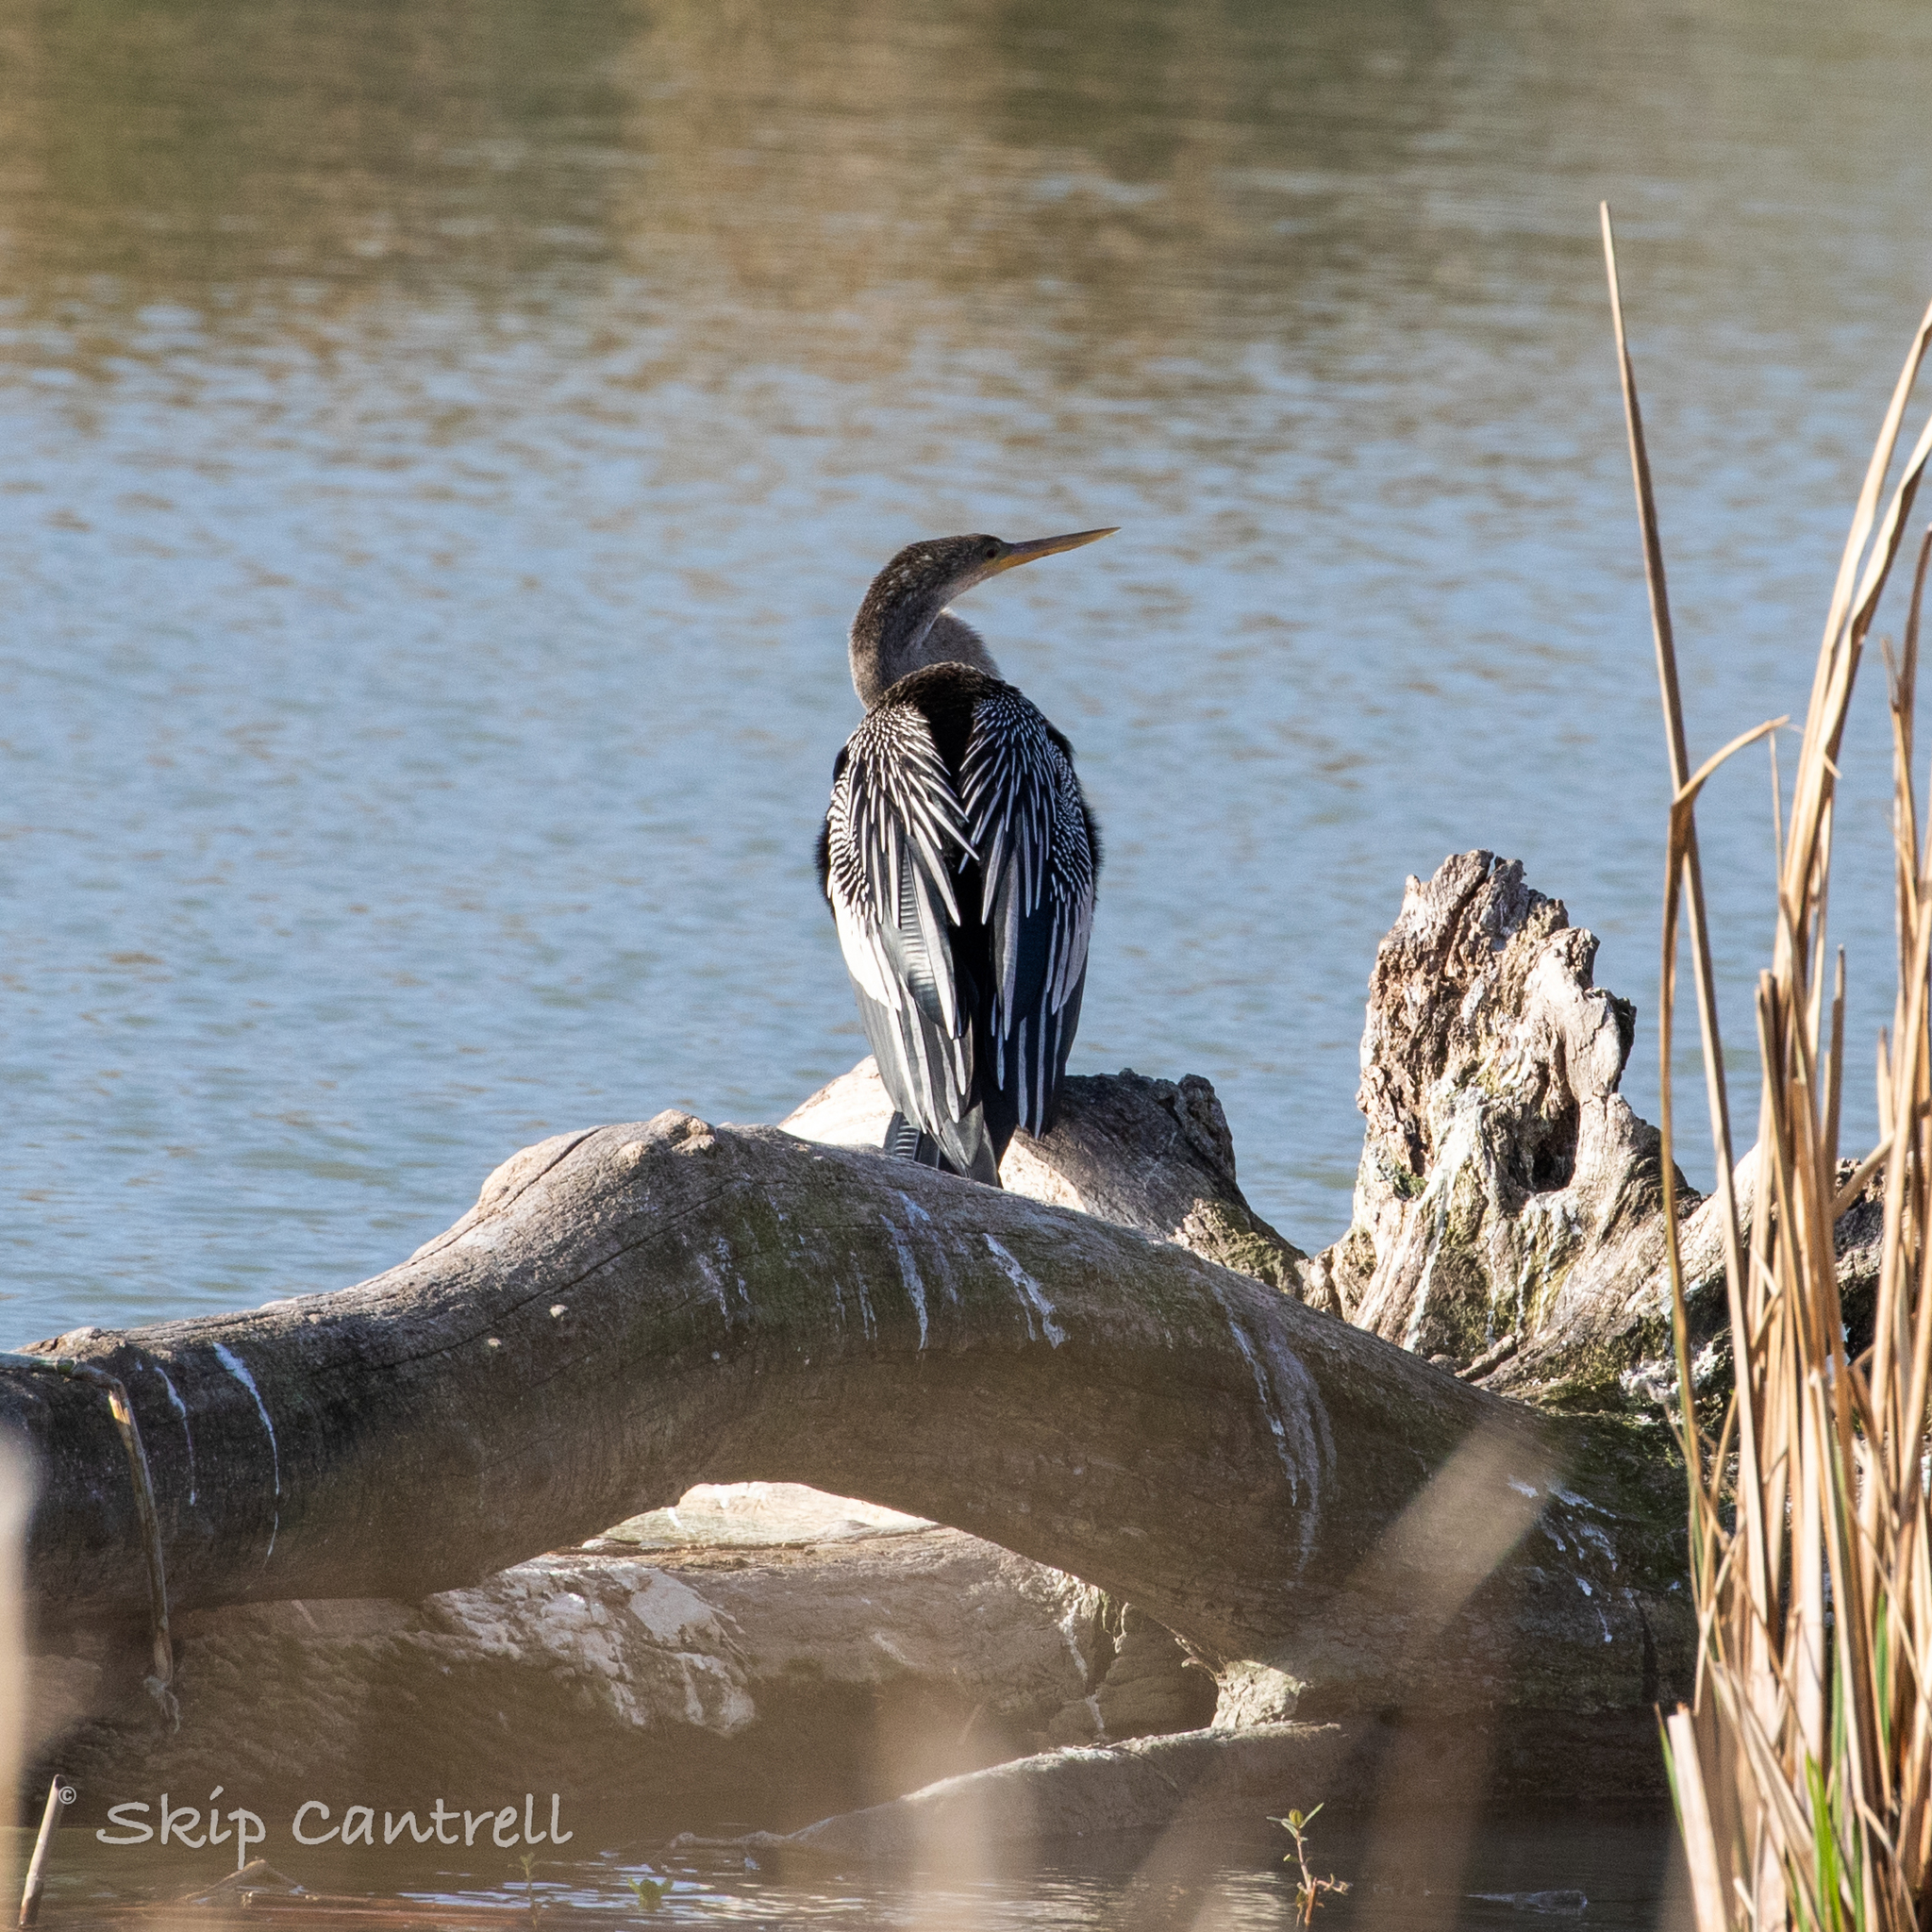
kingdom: Animalia
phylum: Chordata
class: Aves
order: Suliformes
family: Anhingidae
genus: Anhinga
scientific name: Anhinga anhinga
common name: Anhinga
